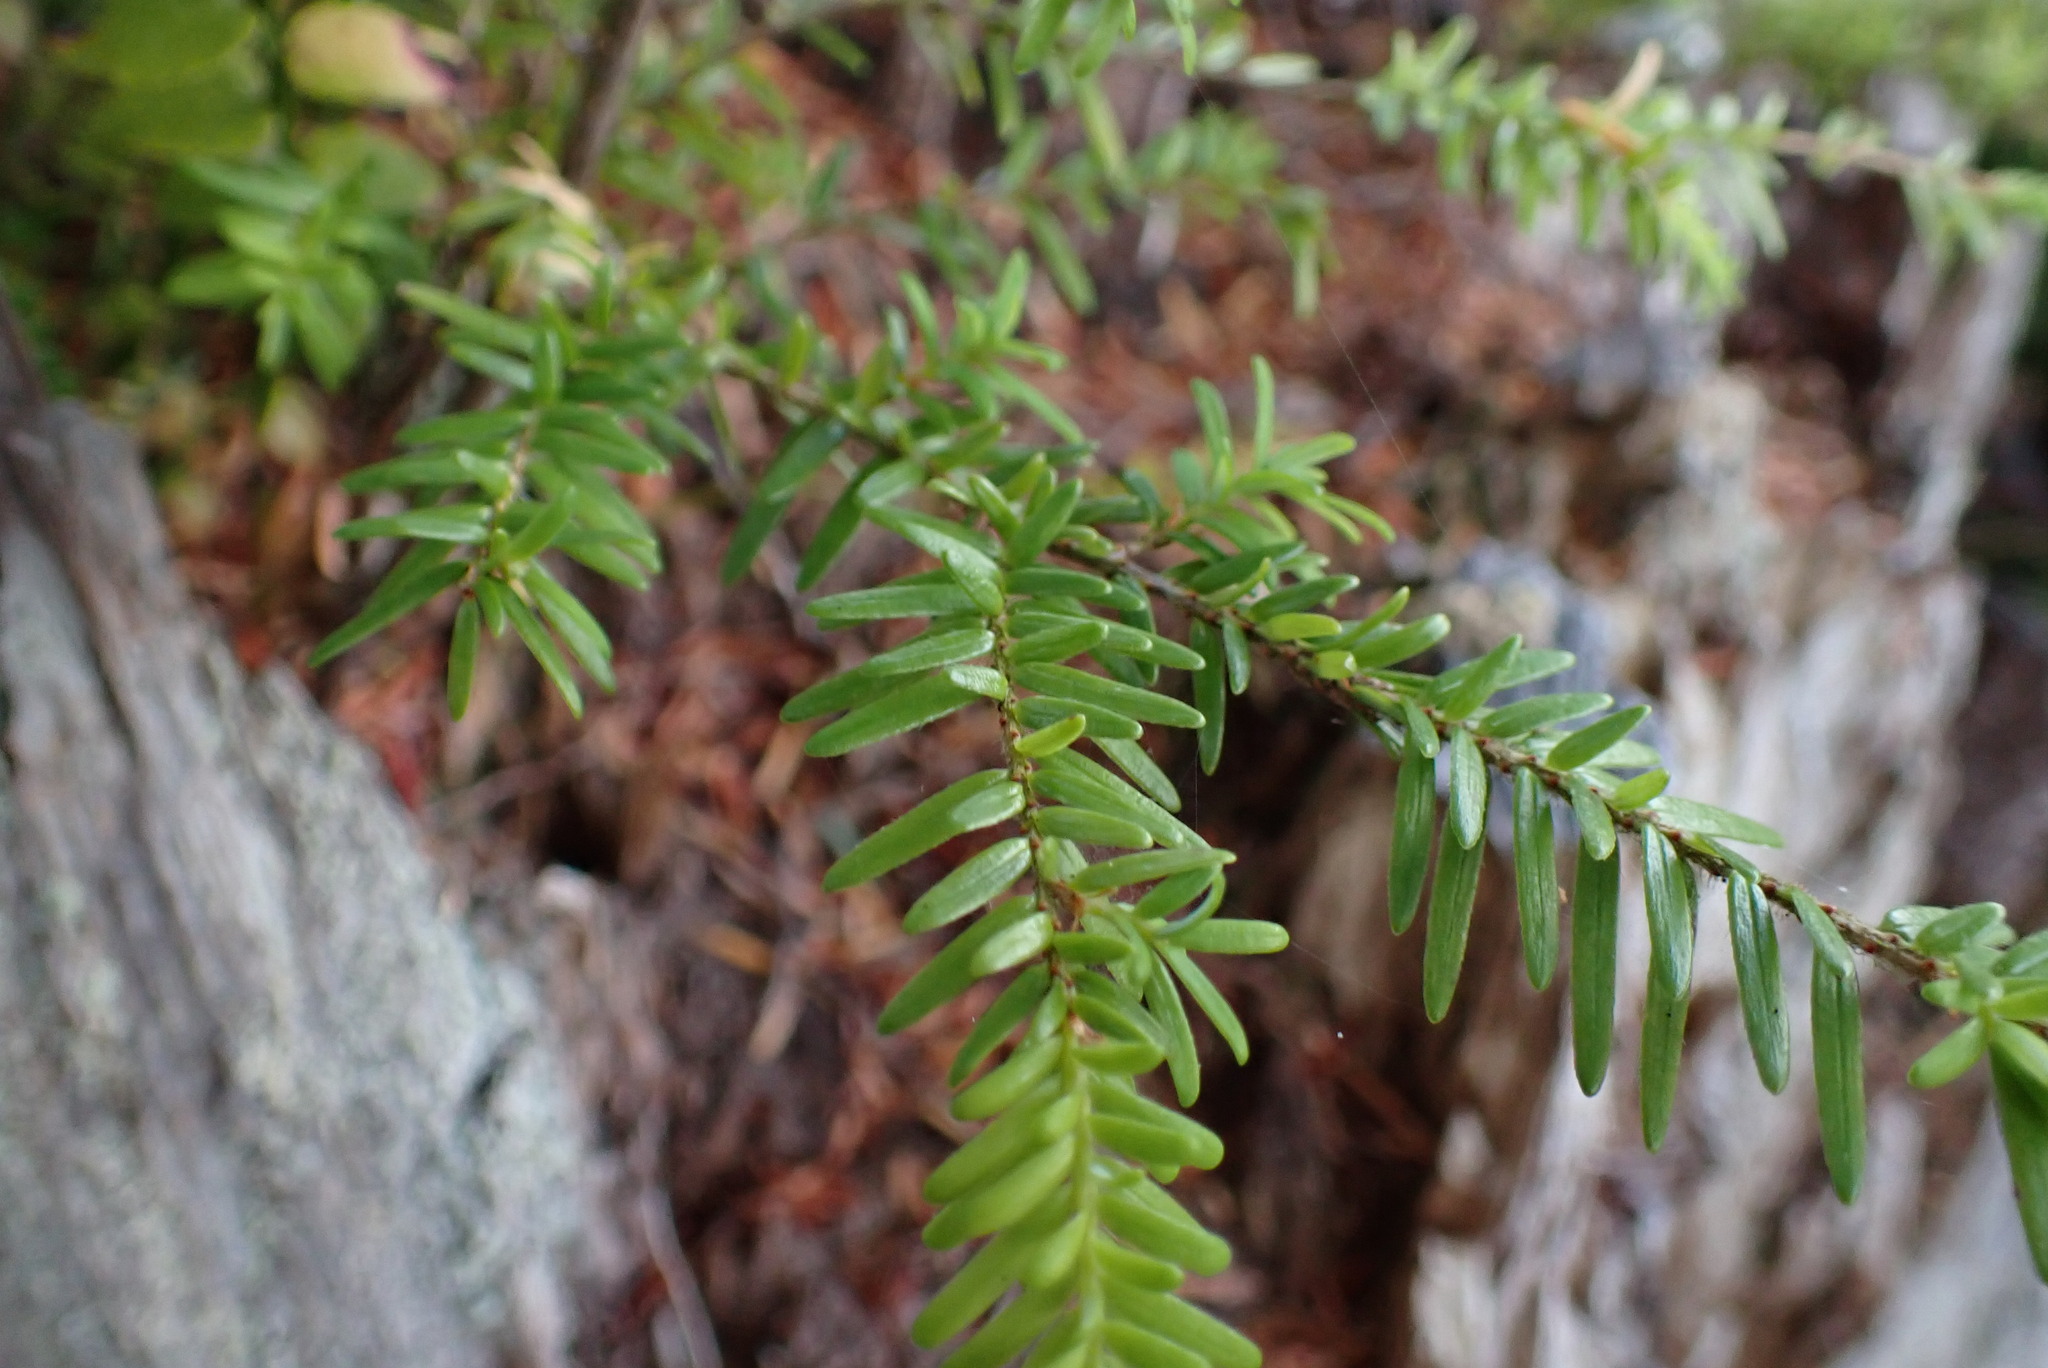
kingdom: Plantae
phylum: Tracheophyta
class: Pinopsida
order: Pinales
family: Pinaceae
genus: Tsuga
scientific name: Tsuga heterophylla
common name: Western hemlock
